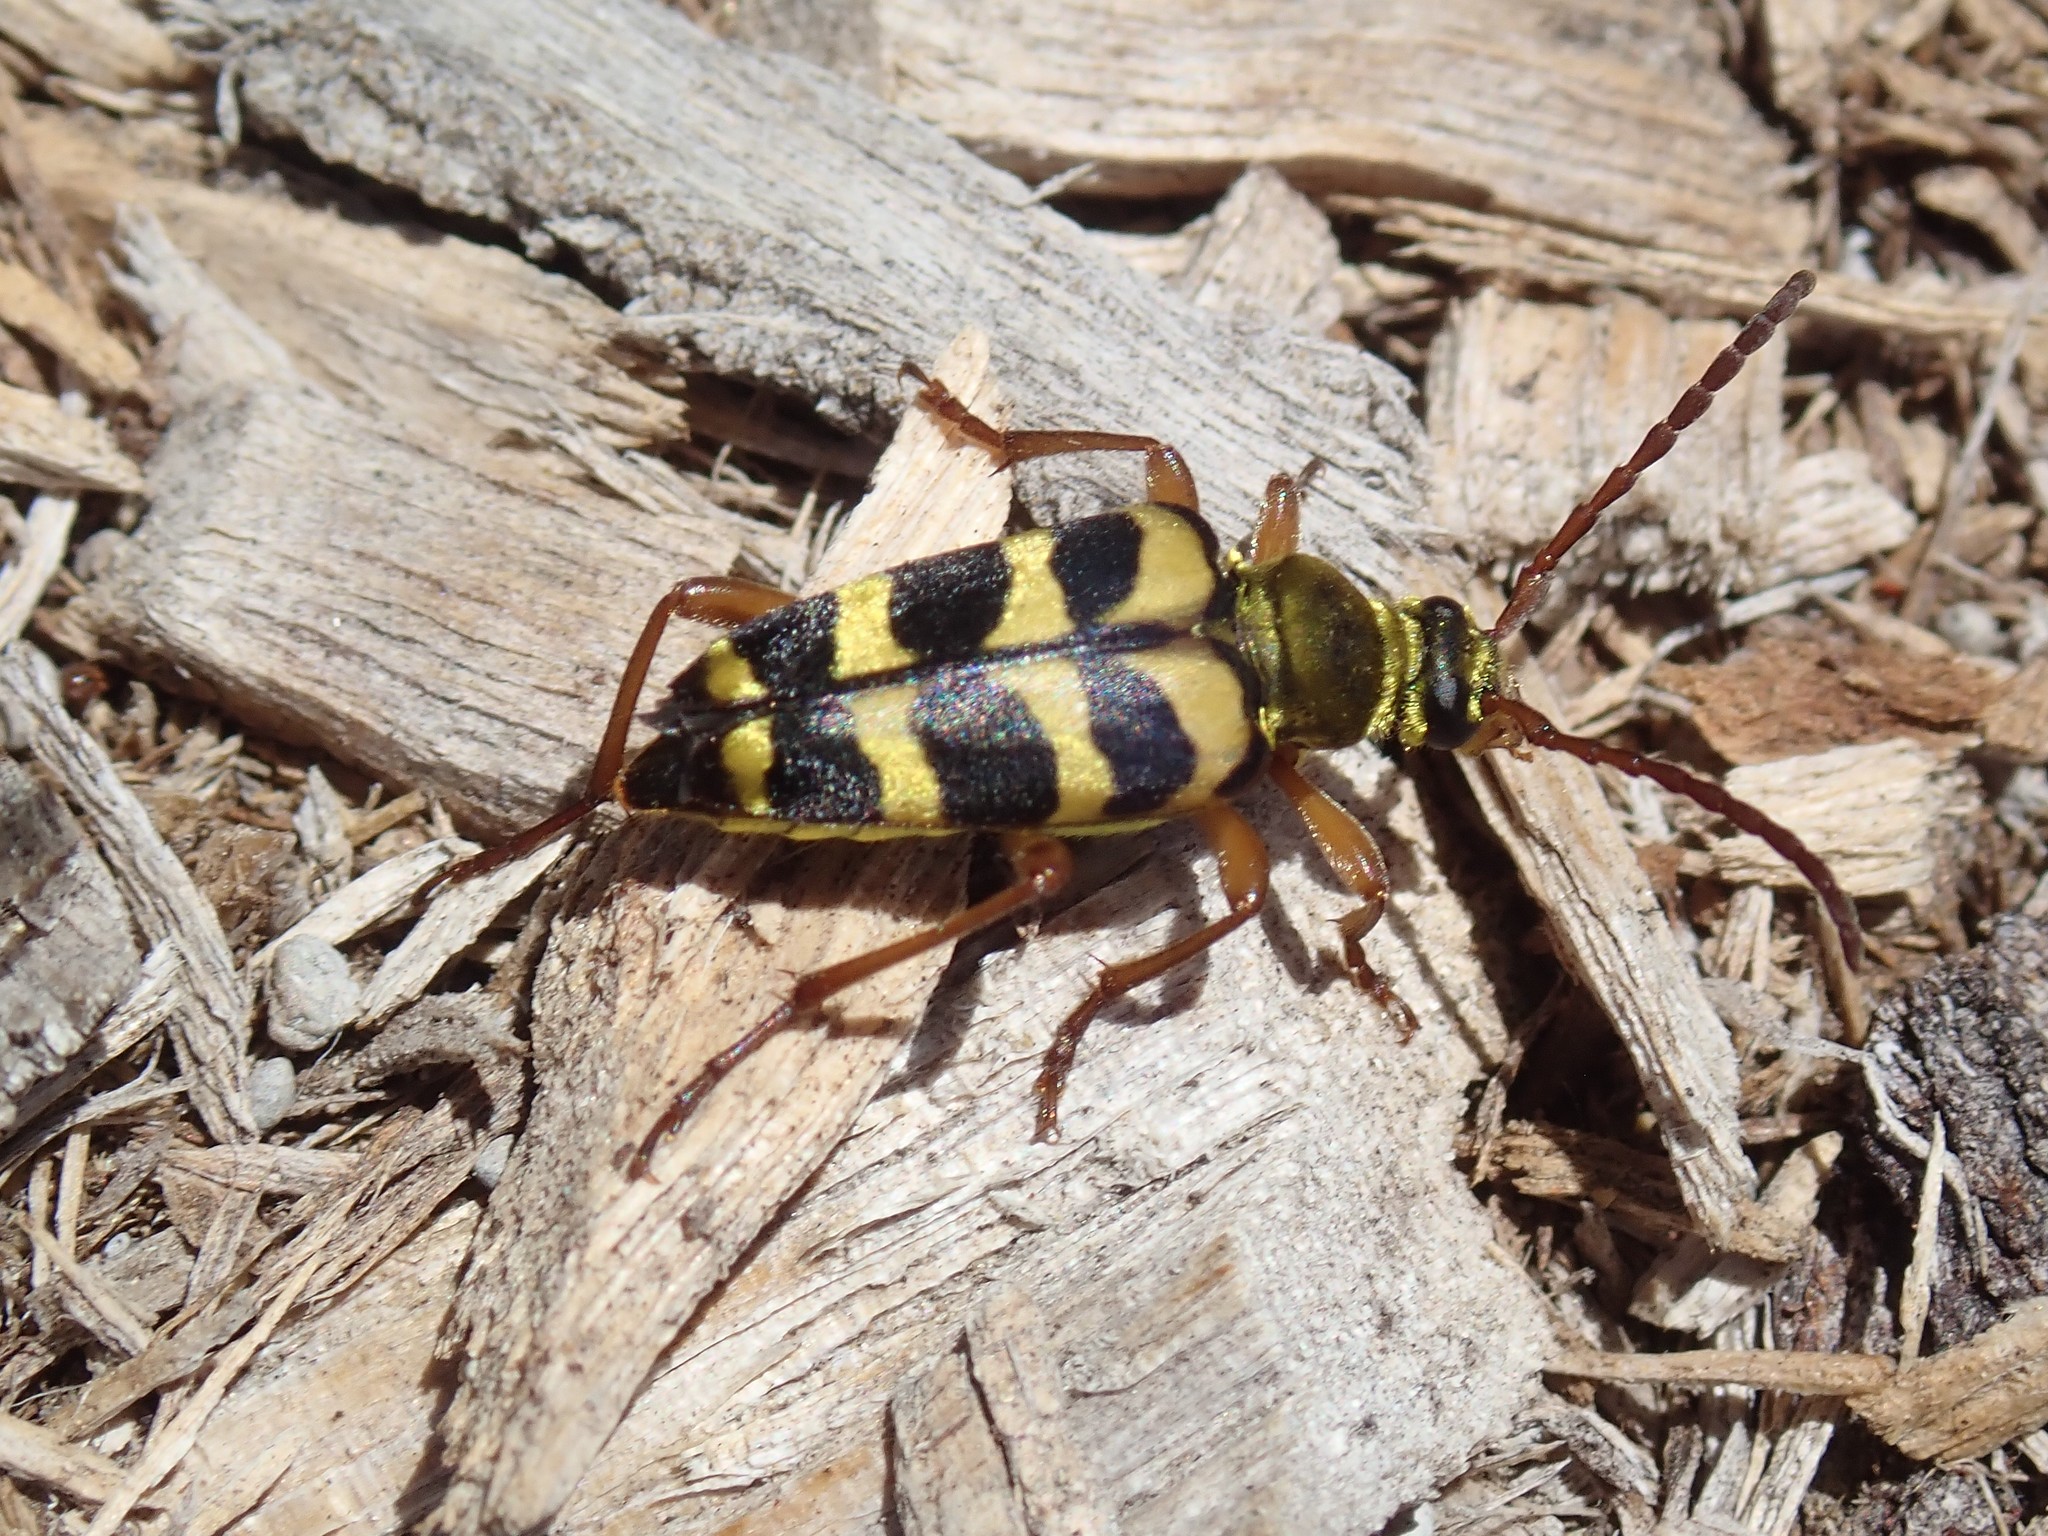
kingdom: Animalia
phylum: Arthropoda
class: Insecta
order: Coleoptera
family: Cerambycidae
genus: Strophiona
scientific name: Strophiona tigrina
